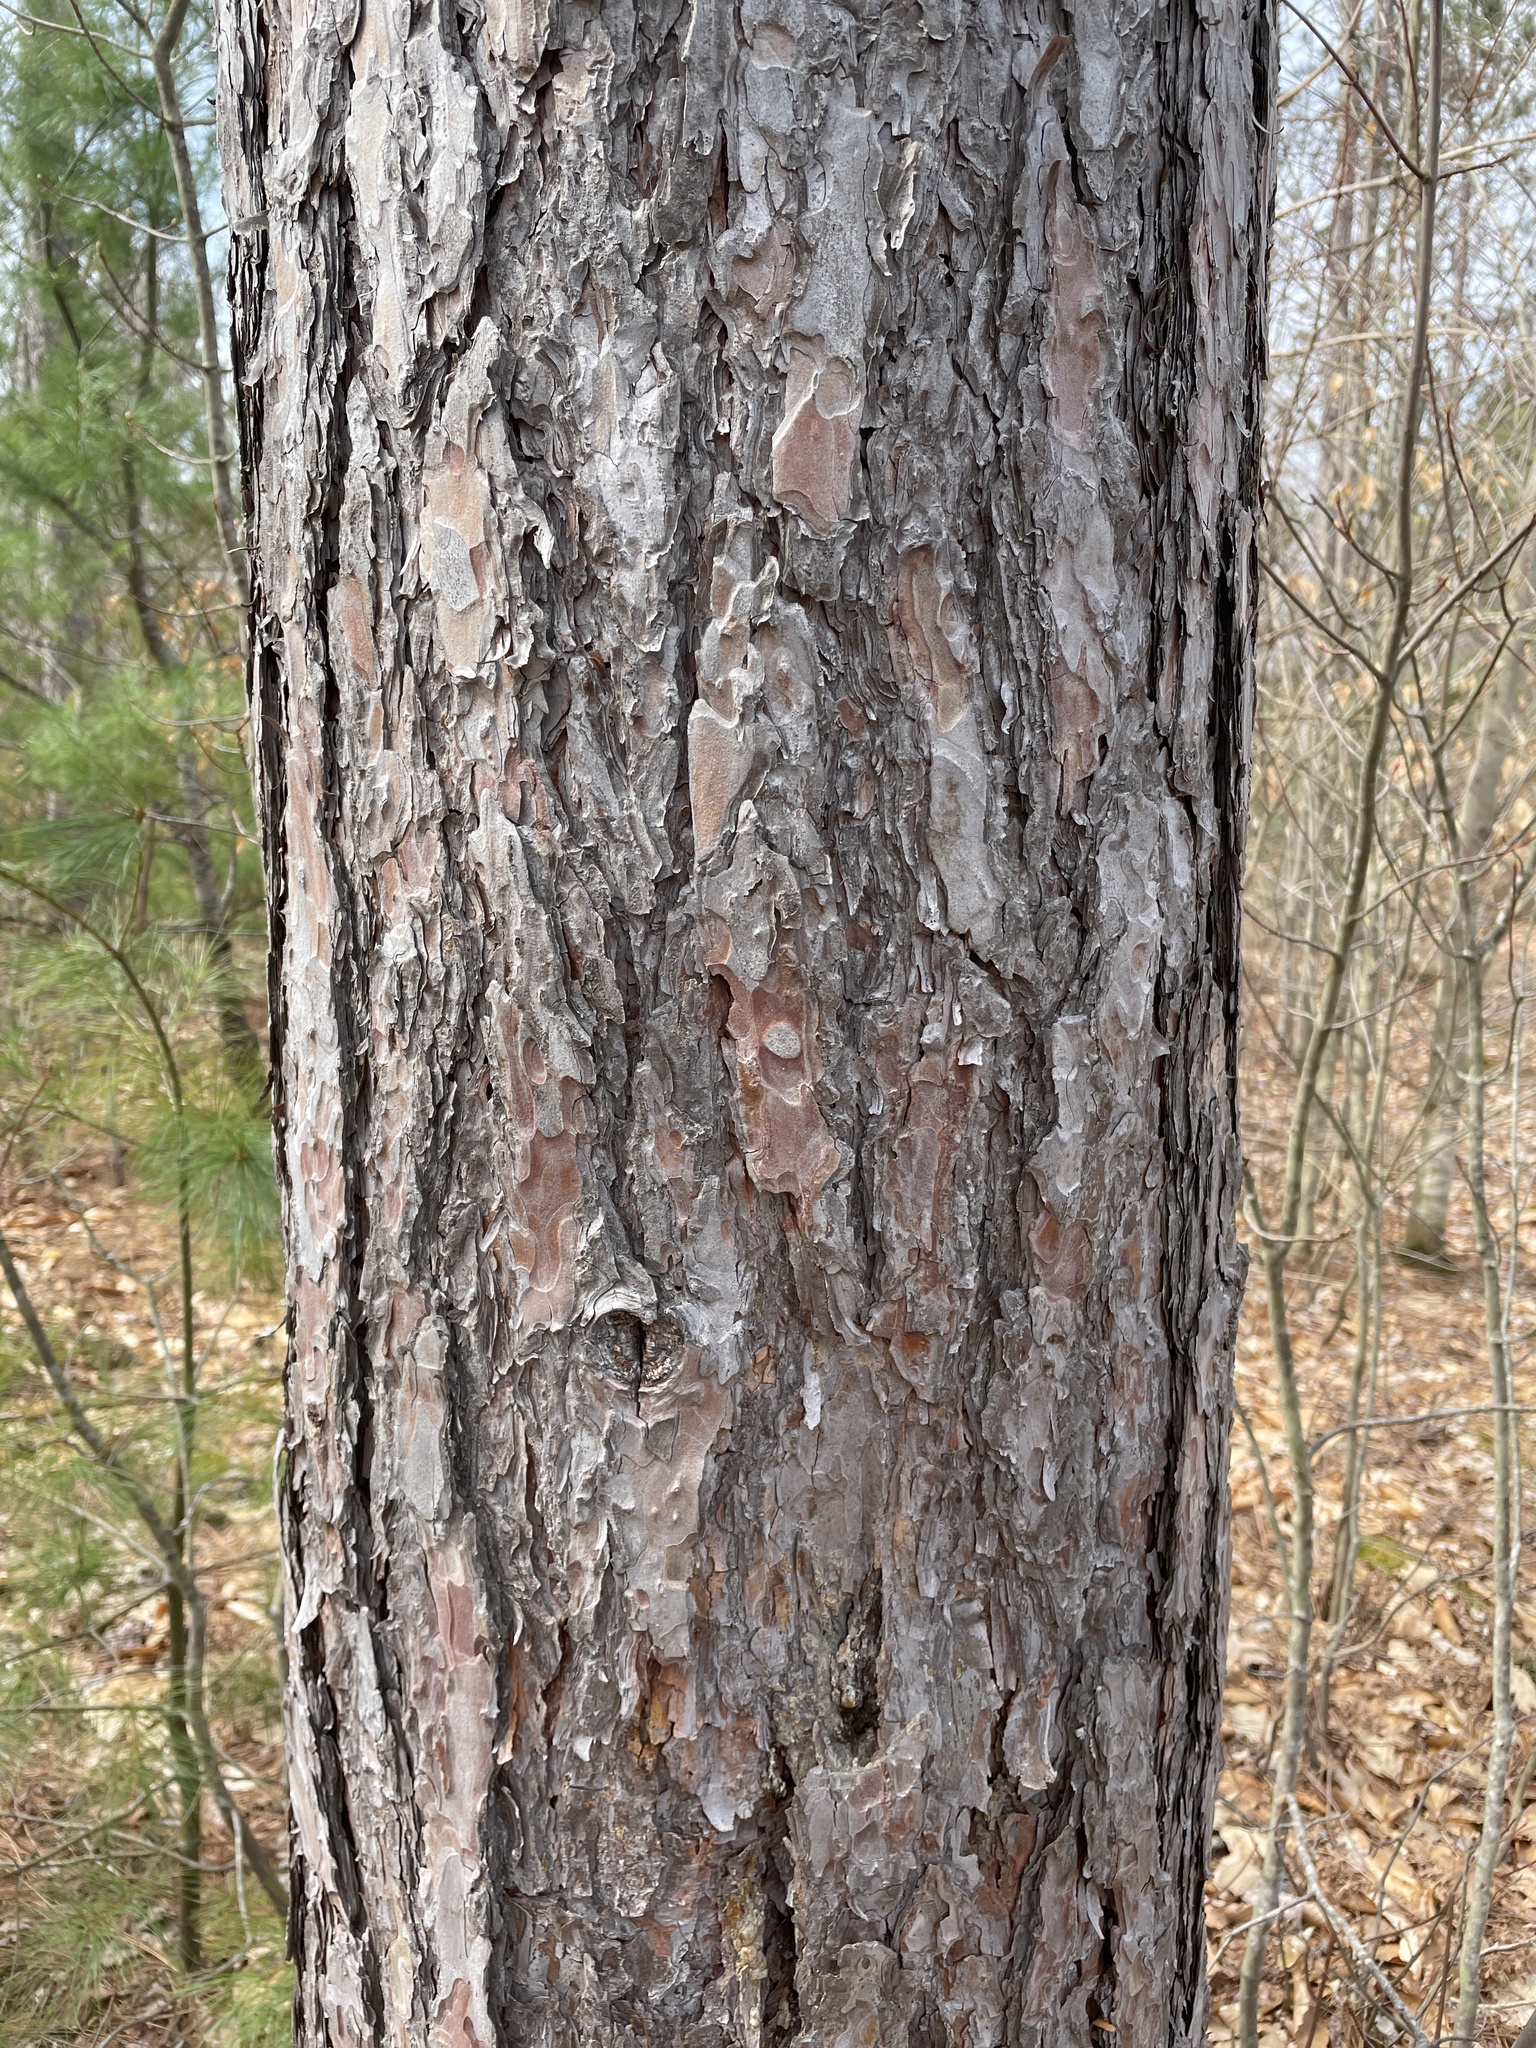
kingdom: Plantae
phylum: Tracheophyta
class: Pinopsida
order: Pinales
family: Pinaceae
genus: Pinus
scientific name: Pinus resinosa
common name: Norway pine
